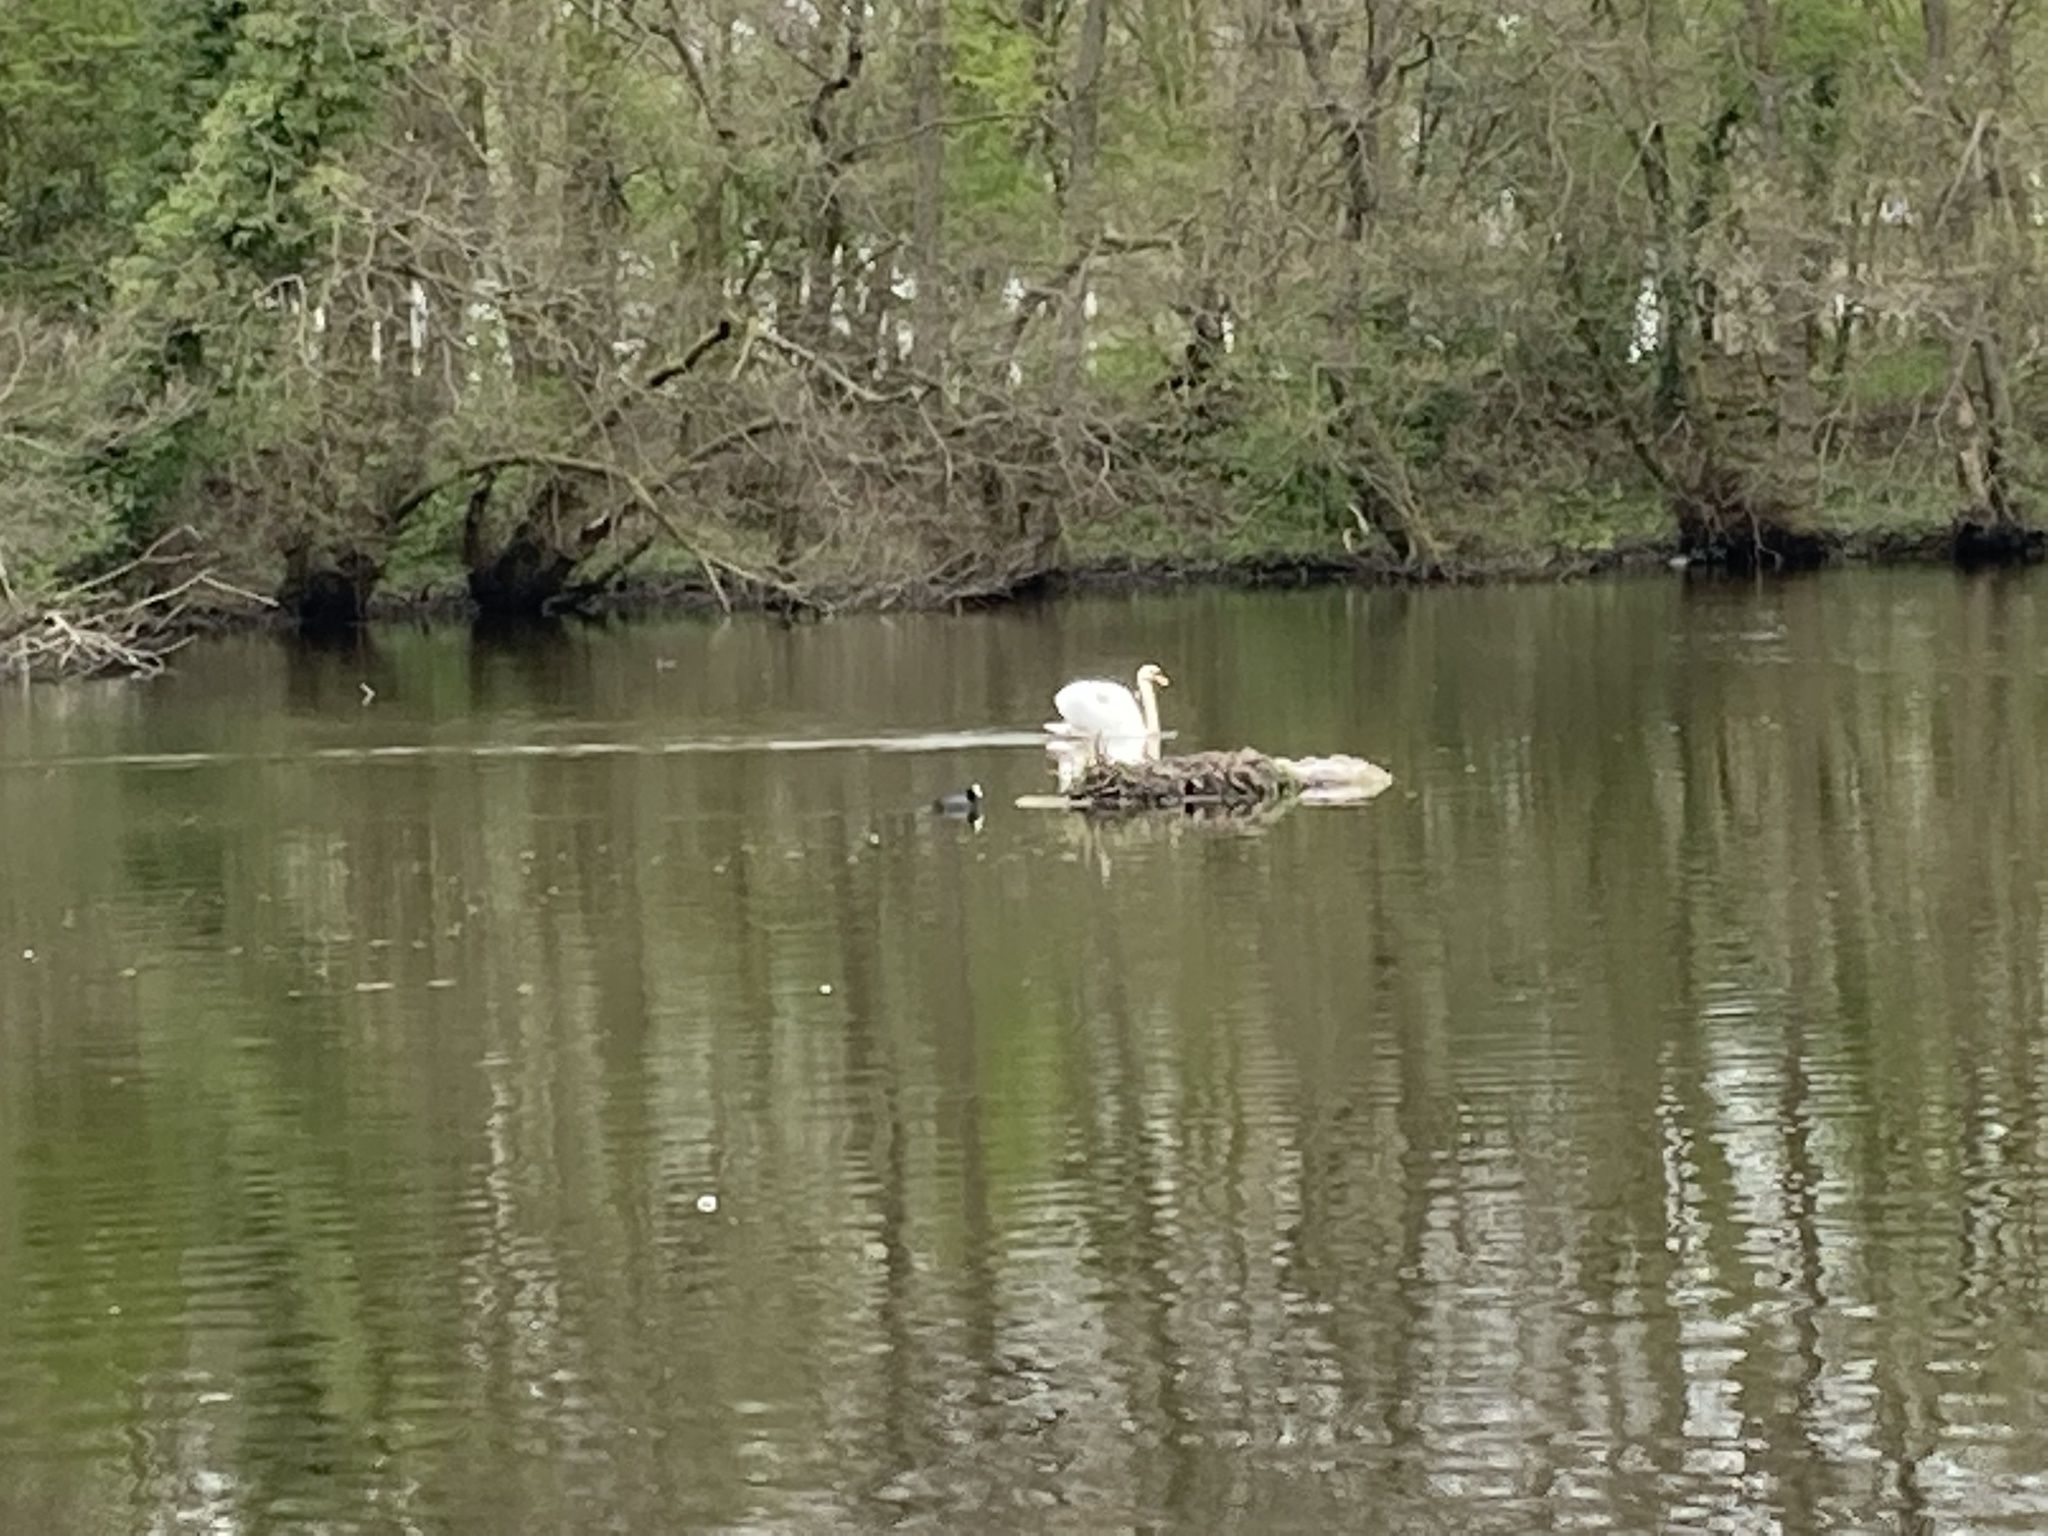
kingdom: Animalia
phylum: Chordata
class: Aves
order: Anseriformes
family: Anatidae
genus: Cygnus
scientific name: Cygnus olor
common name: Mute swan
